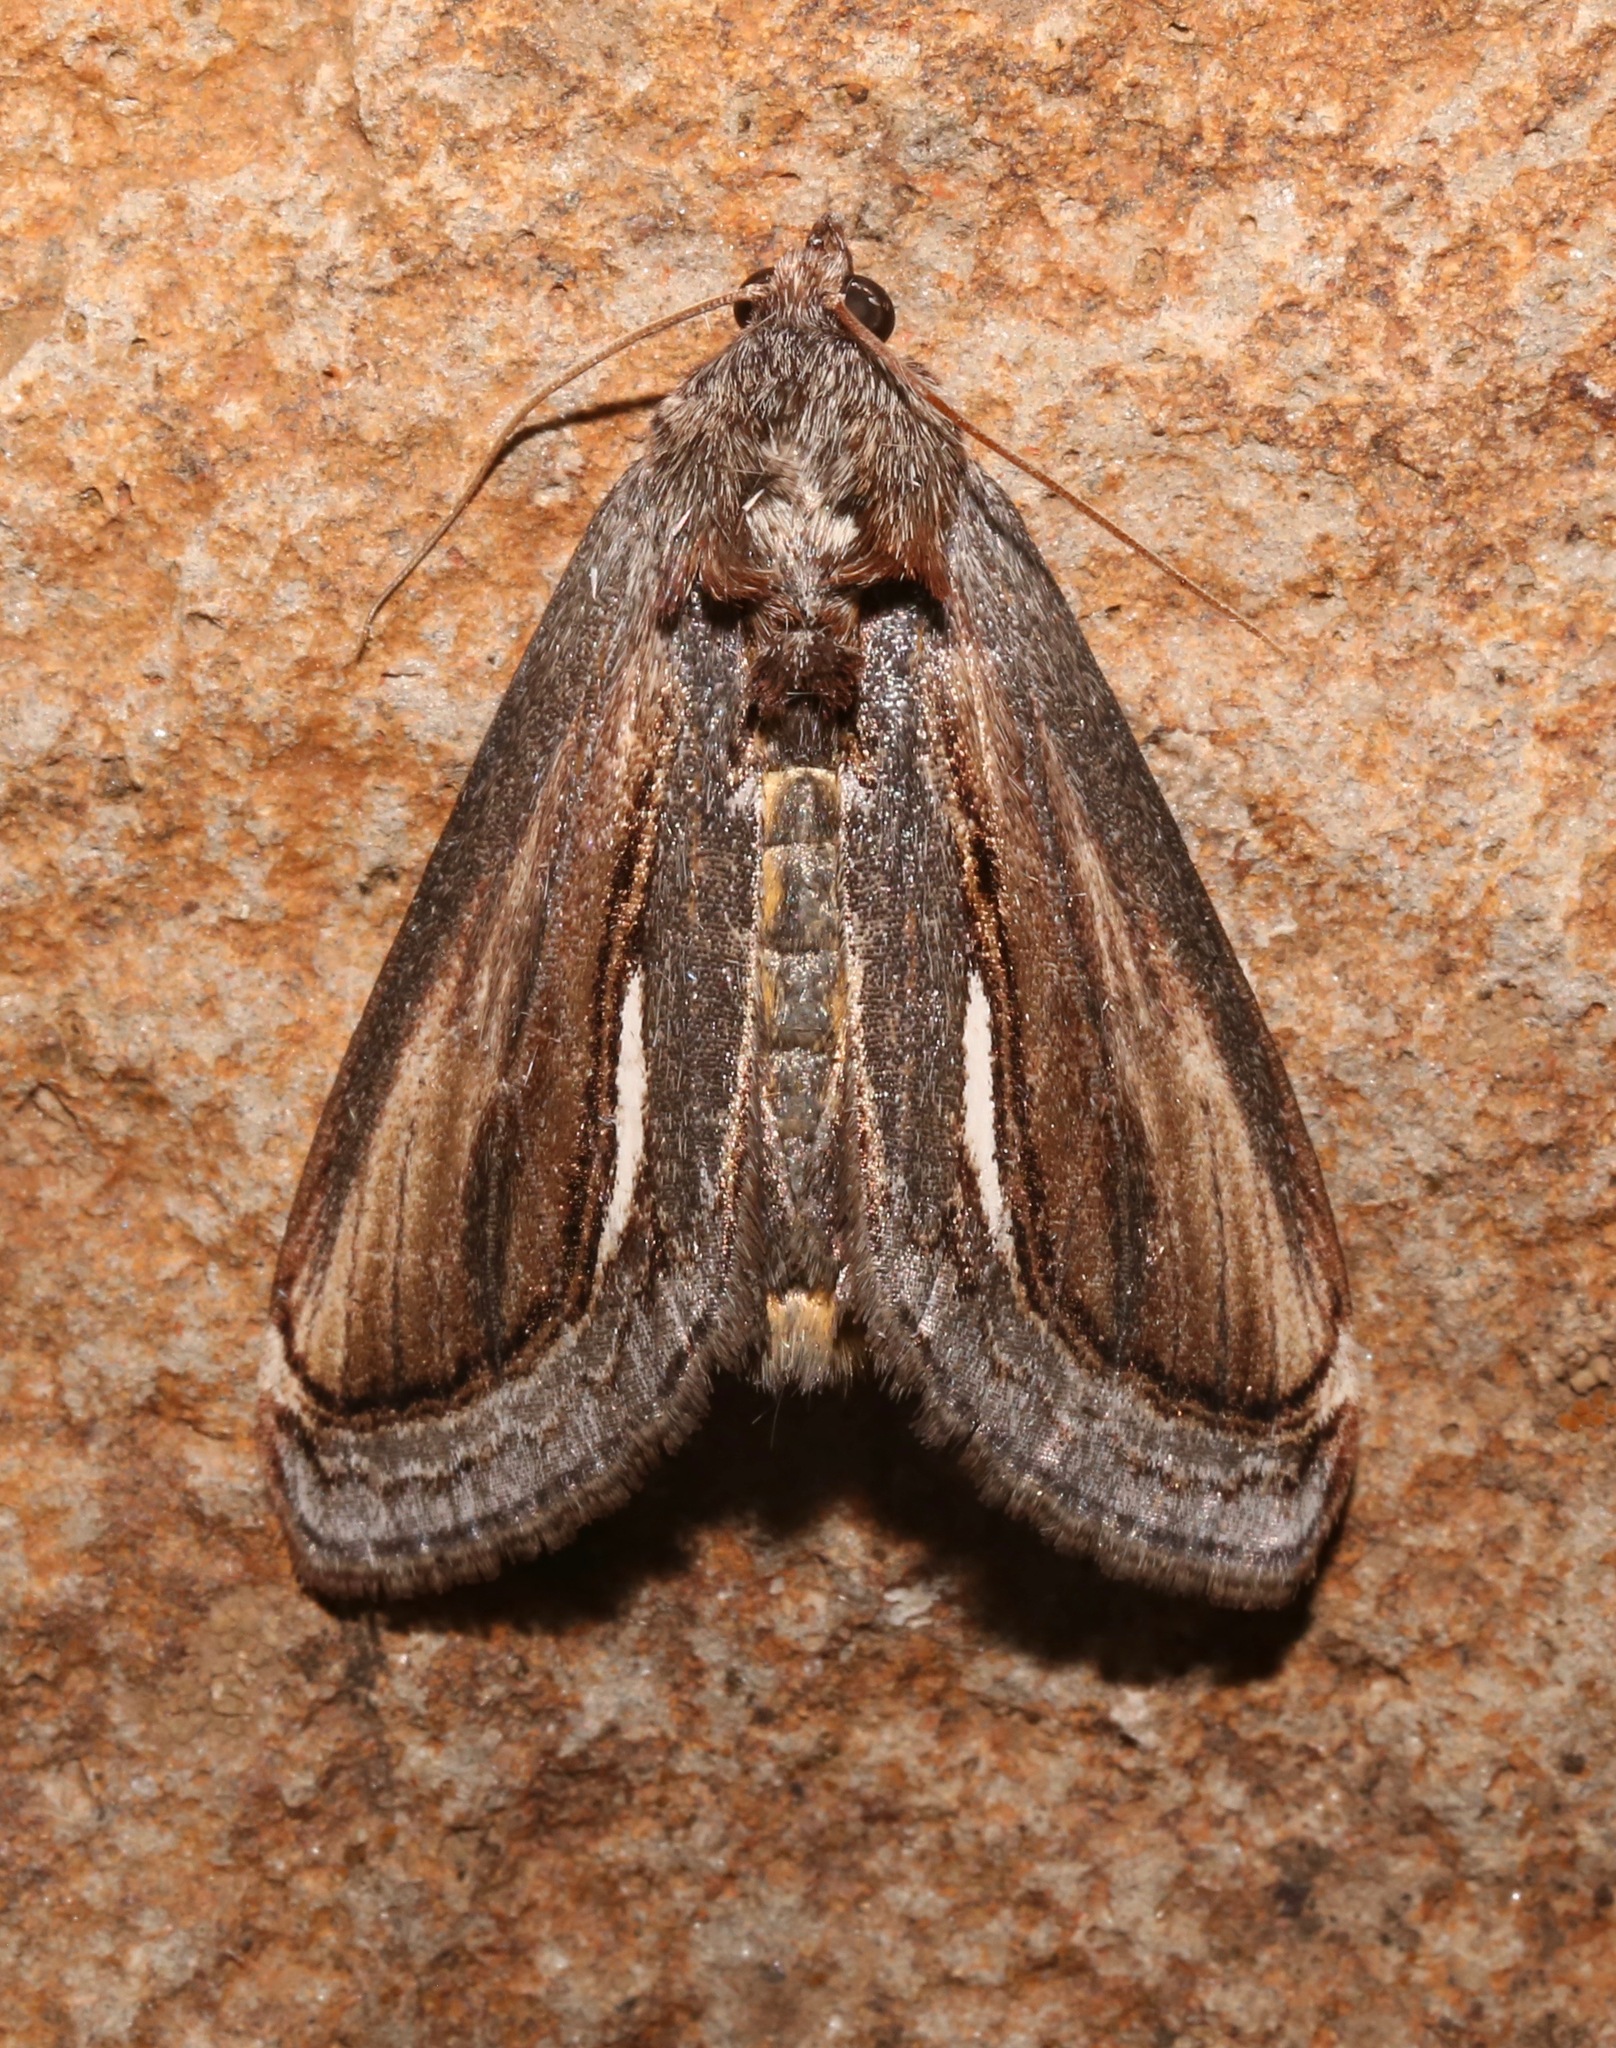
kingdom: Animalia
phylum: Arthropoda
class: Insecta
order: Lepidoptera
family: Noctuidae
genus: Gerrodes
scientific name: Gerrodes minatea
